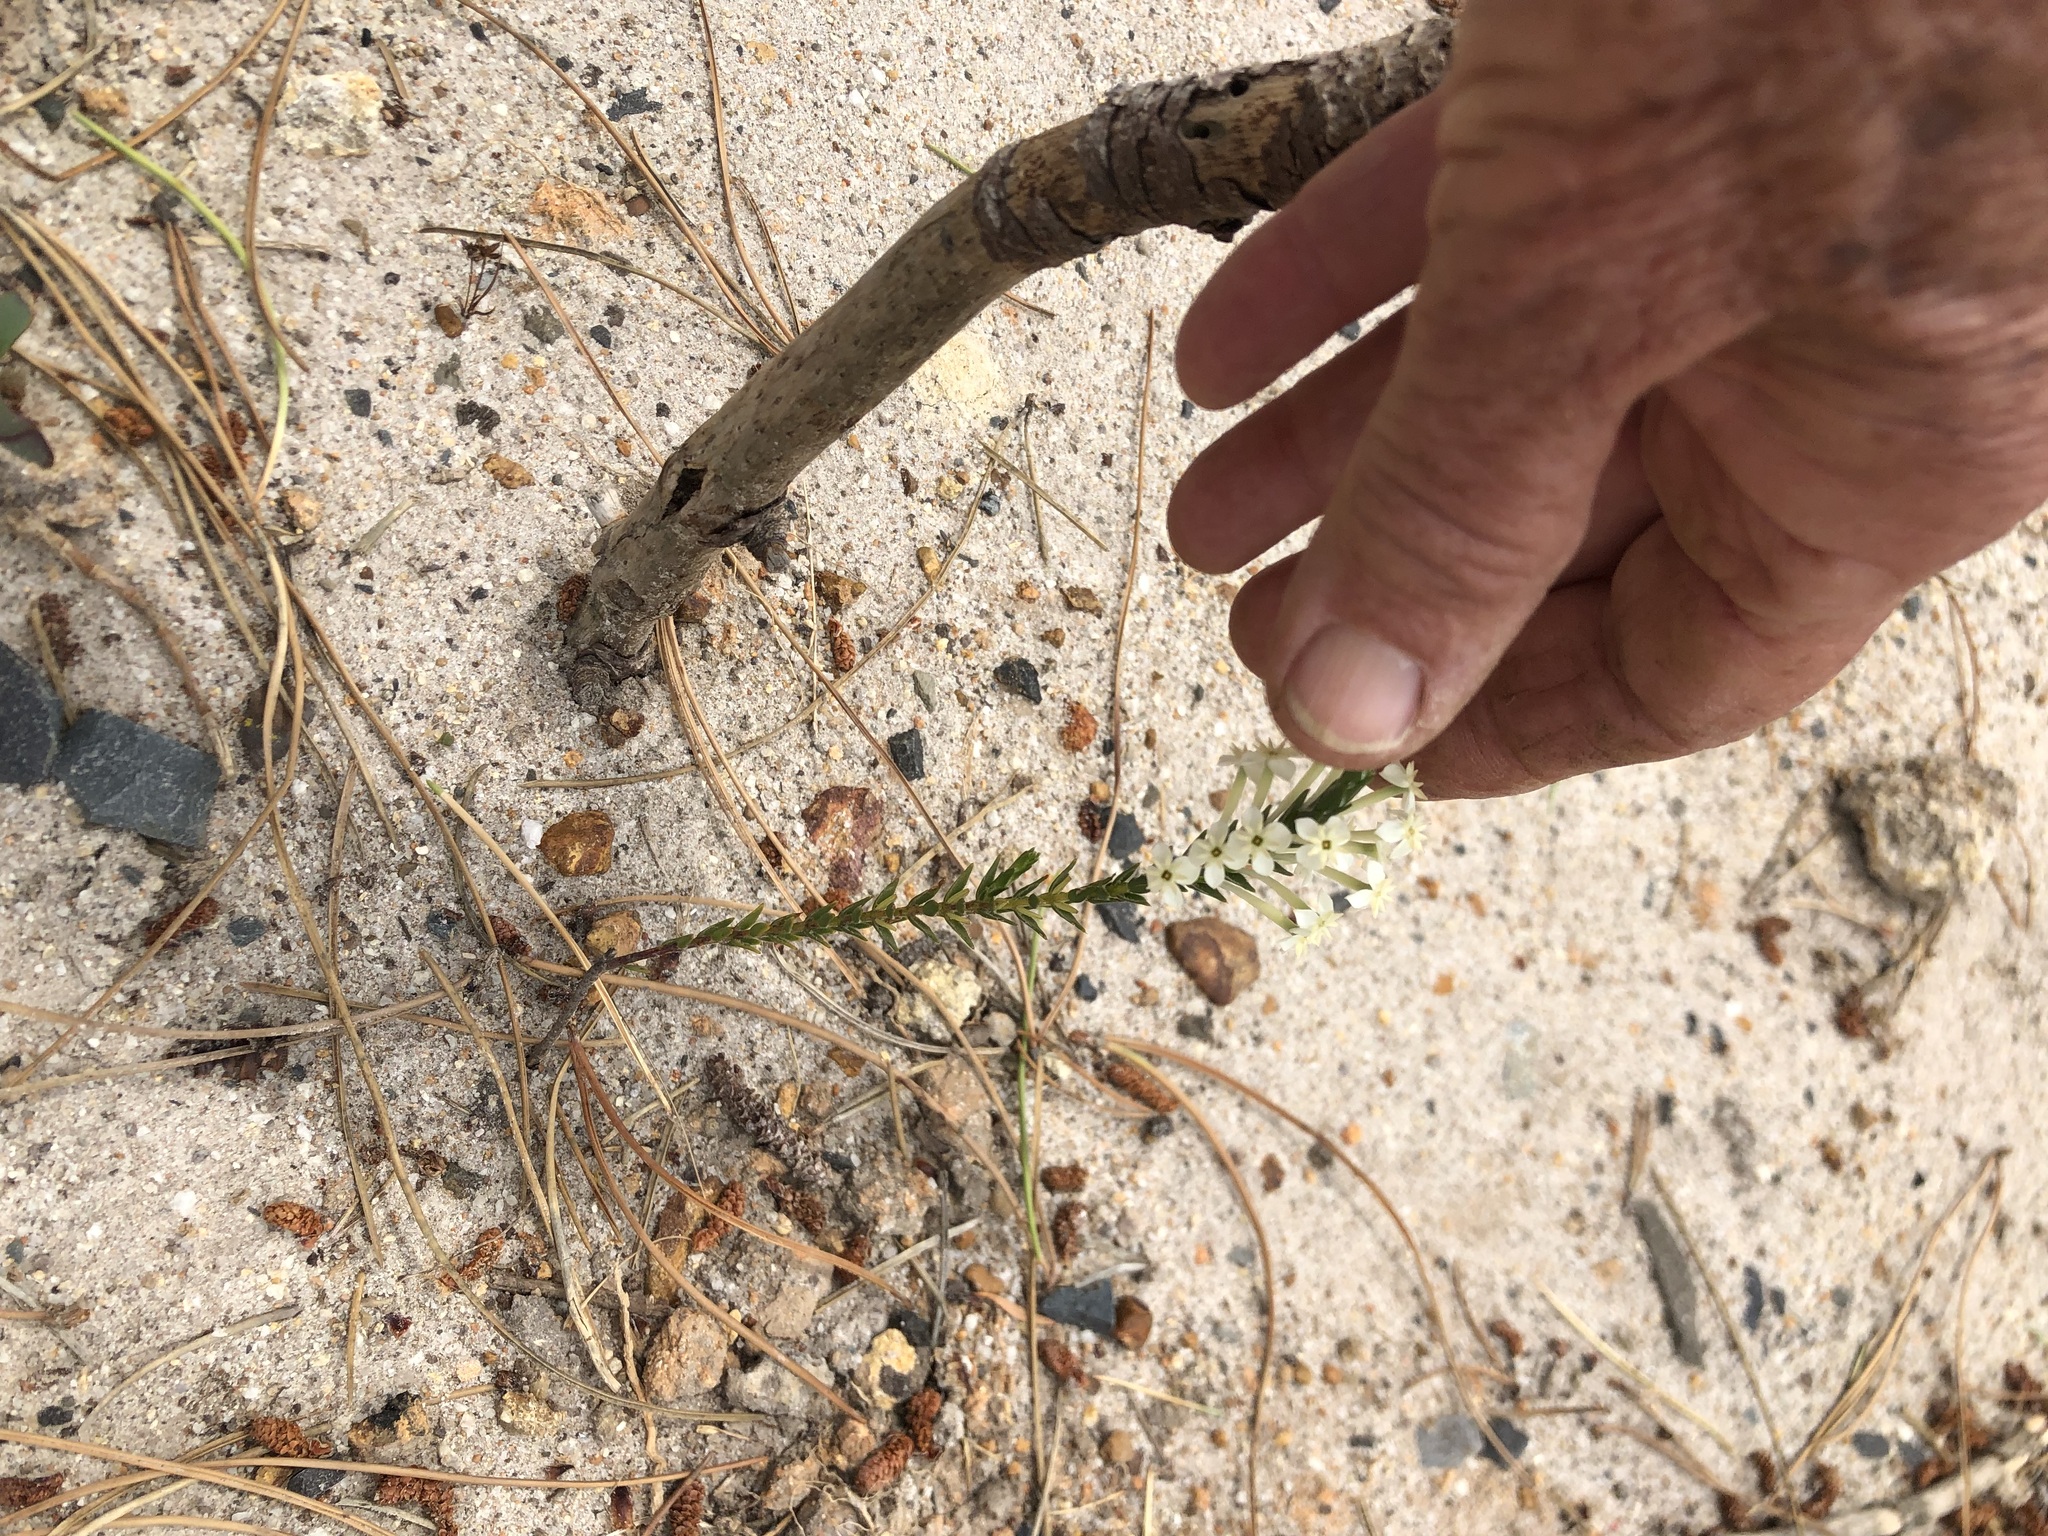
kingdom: Plantae
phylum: Tracheophyta
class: Magnoliopsida
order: Malvales
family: Thymelaeaceae
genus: Struthiola
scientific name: Struthiola ciliata
